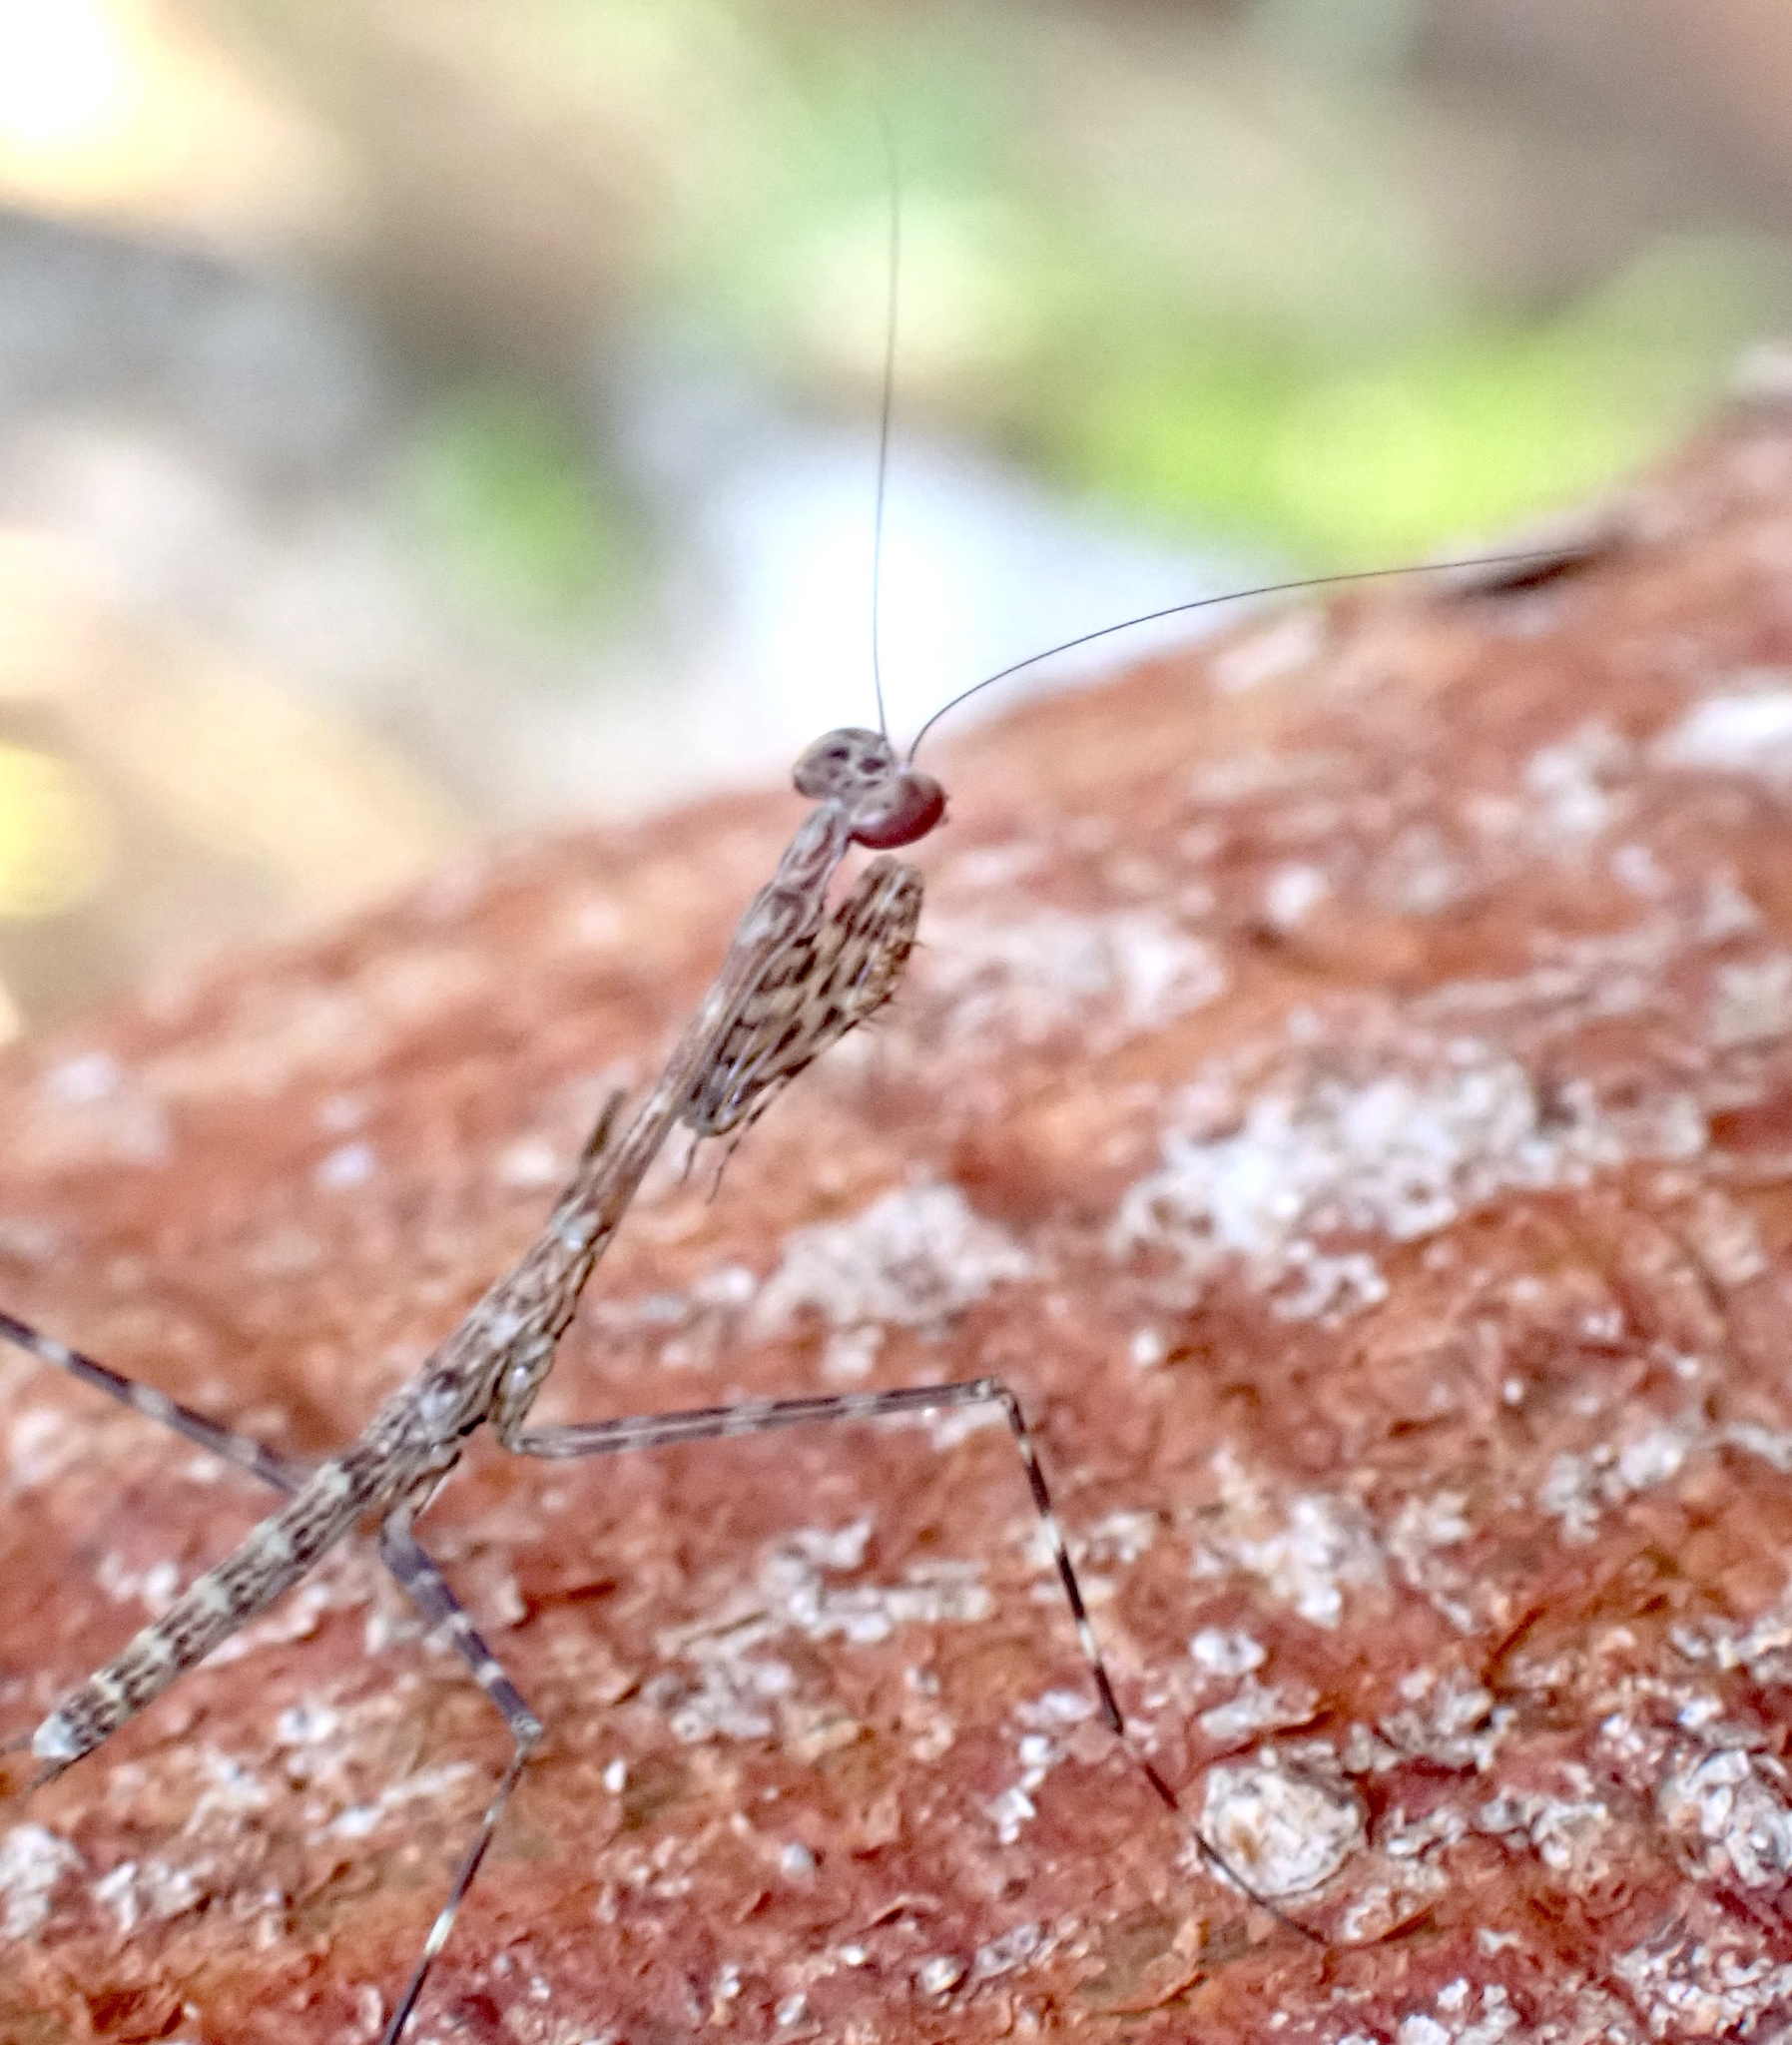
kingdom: Animalia
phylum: Arthropoda
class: Insecta
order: Mantodea
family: Nanomantidae
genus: Stenomantis
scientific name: Stenomantis novaeguineae
